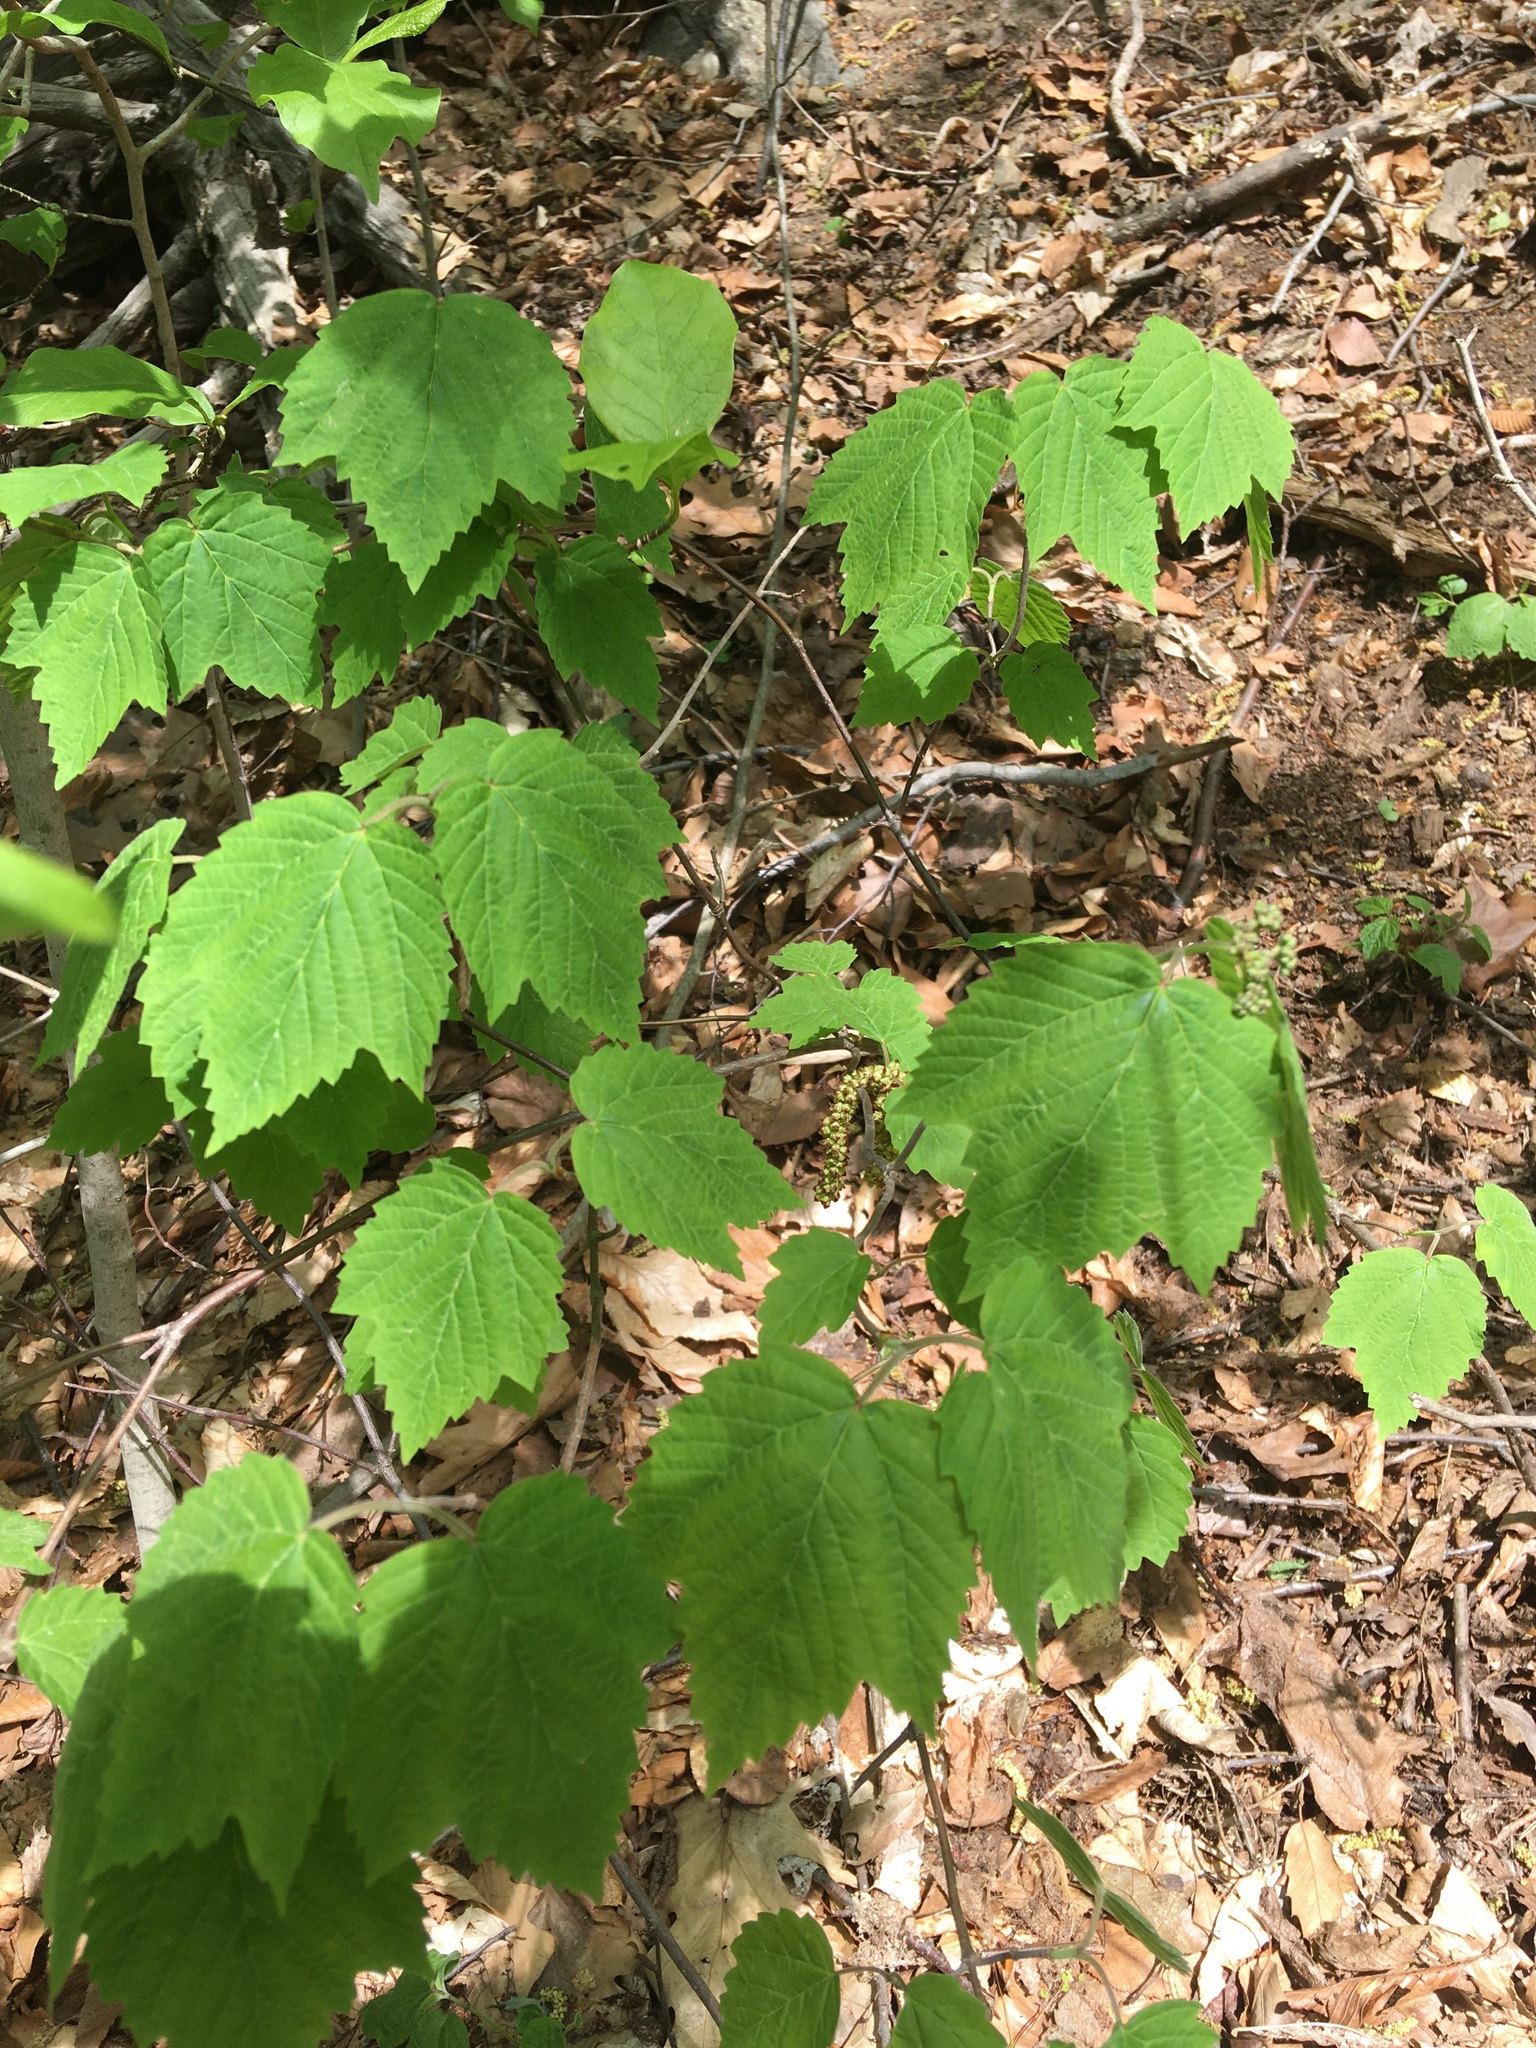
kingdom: Plantae
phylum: Tracheophyta
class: Magnoliopsida
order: Dipsacales
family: Viburnaceae
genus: Viburnum
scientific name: Viburnum acerifolium
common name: Dockmackie
